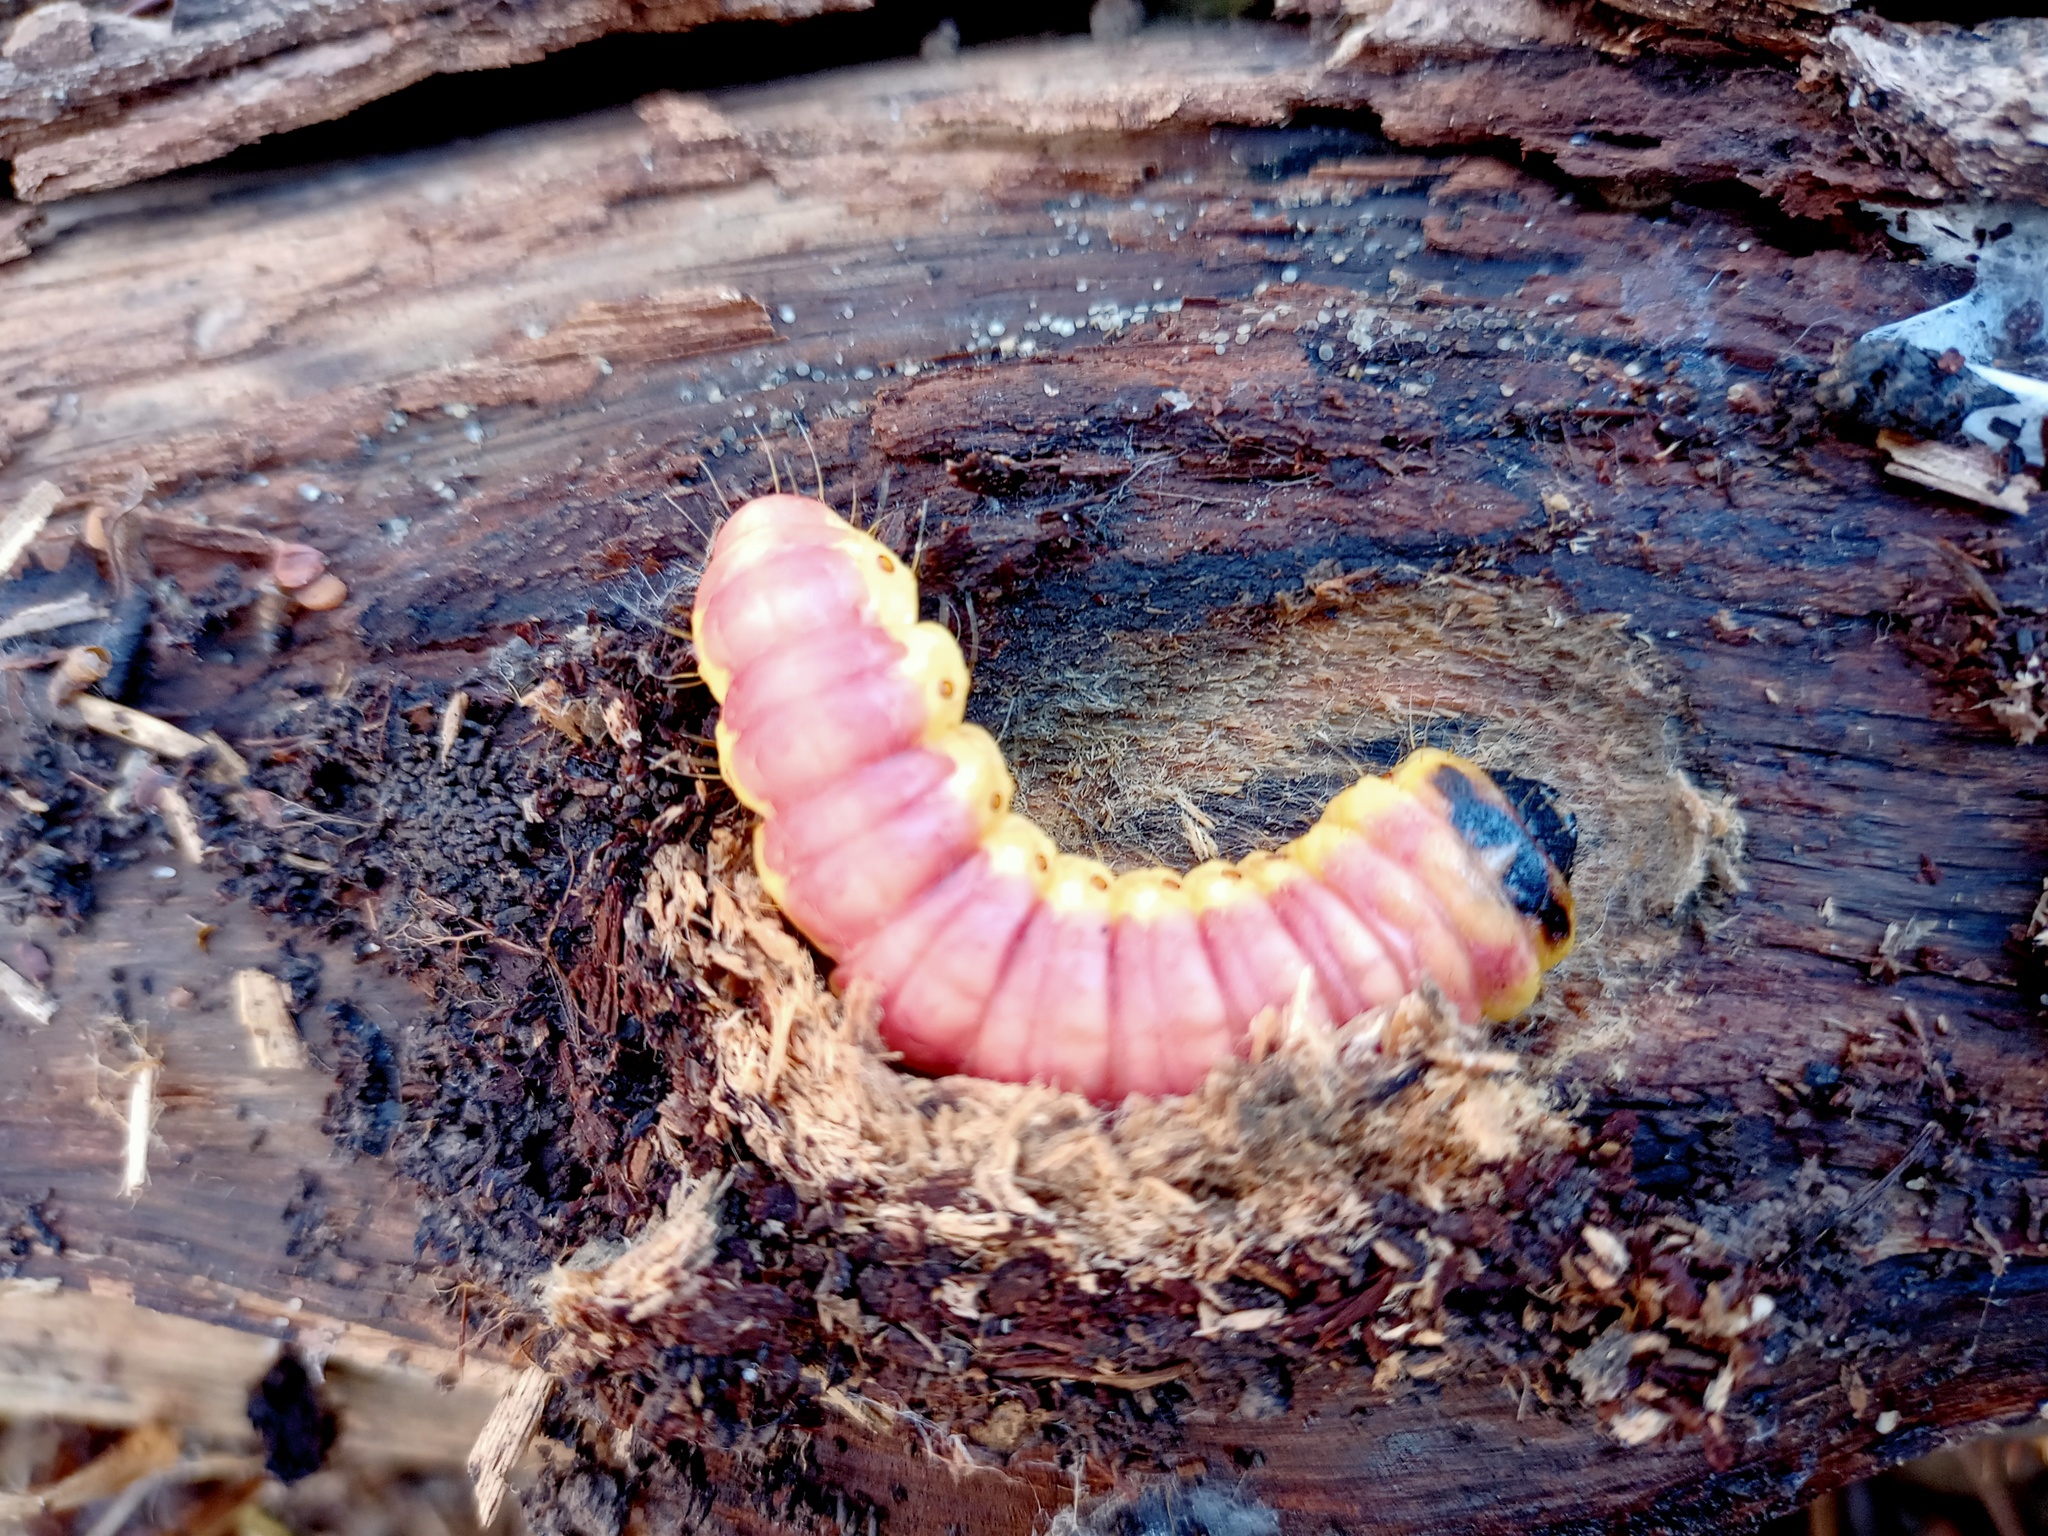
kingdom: Animalia
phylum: Arthropoda
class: Insecta
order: Lepidoptera
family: Cossidae
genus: Cossus
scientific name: Cossus cossus
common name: Goat moth
